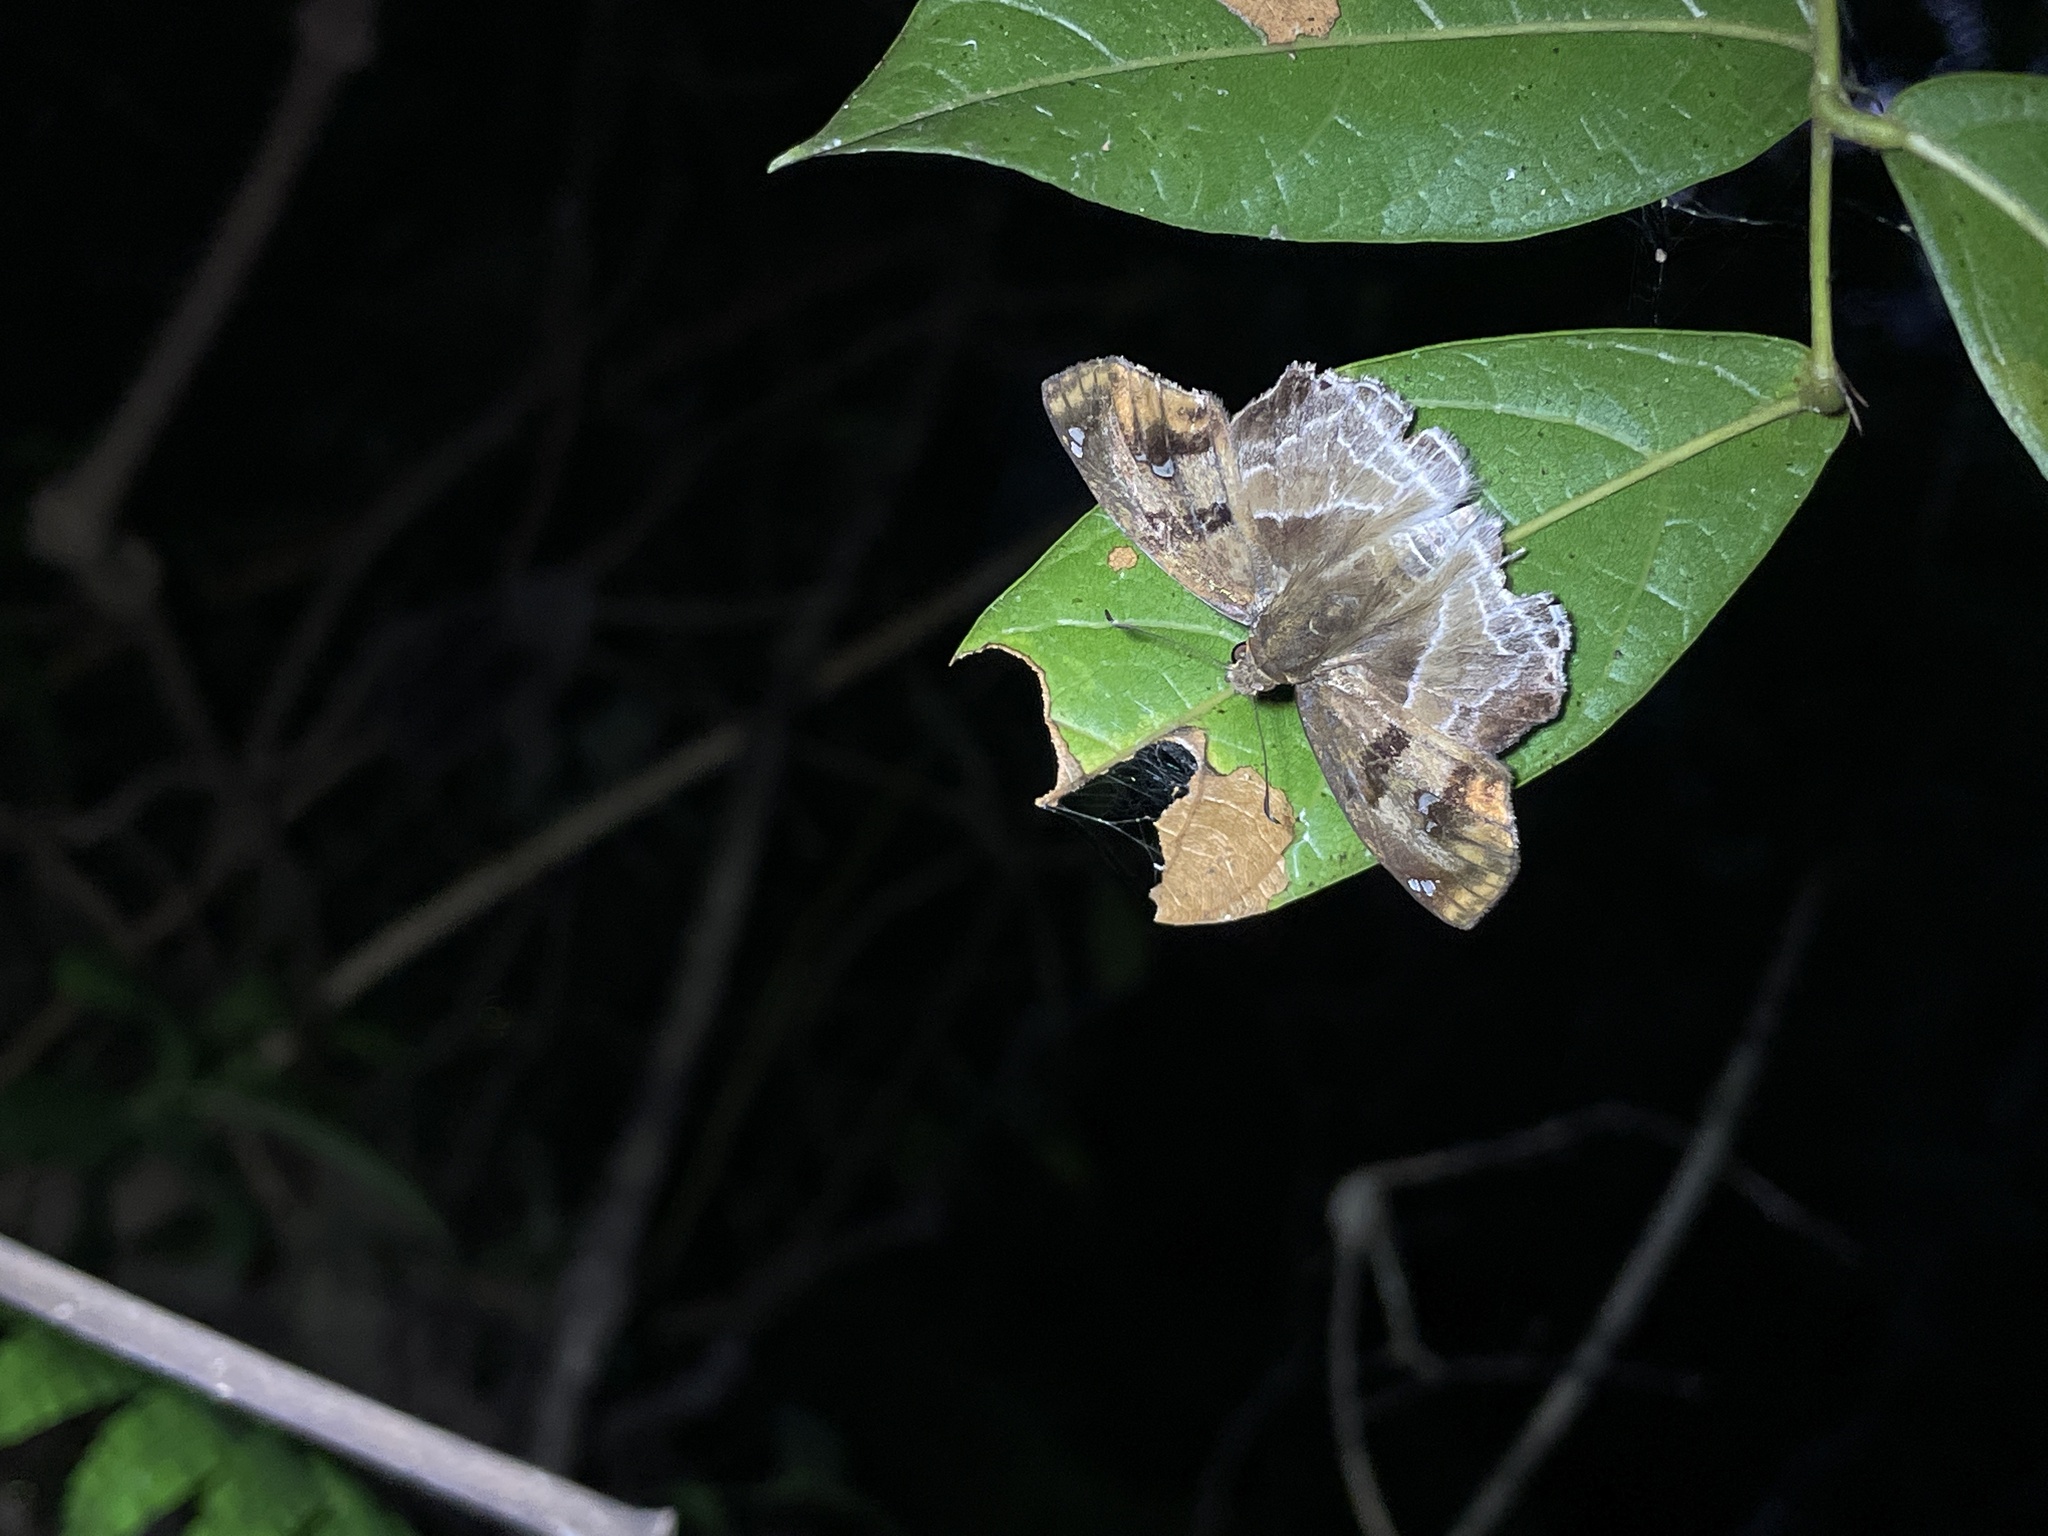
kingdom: Animalia
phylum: Arthropoda
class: Insecta
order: Lepidoptera
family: Hesperiidae
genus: Odontoptilum
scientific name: Odontoptilum angulata
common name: Chestnut banded angle
